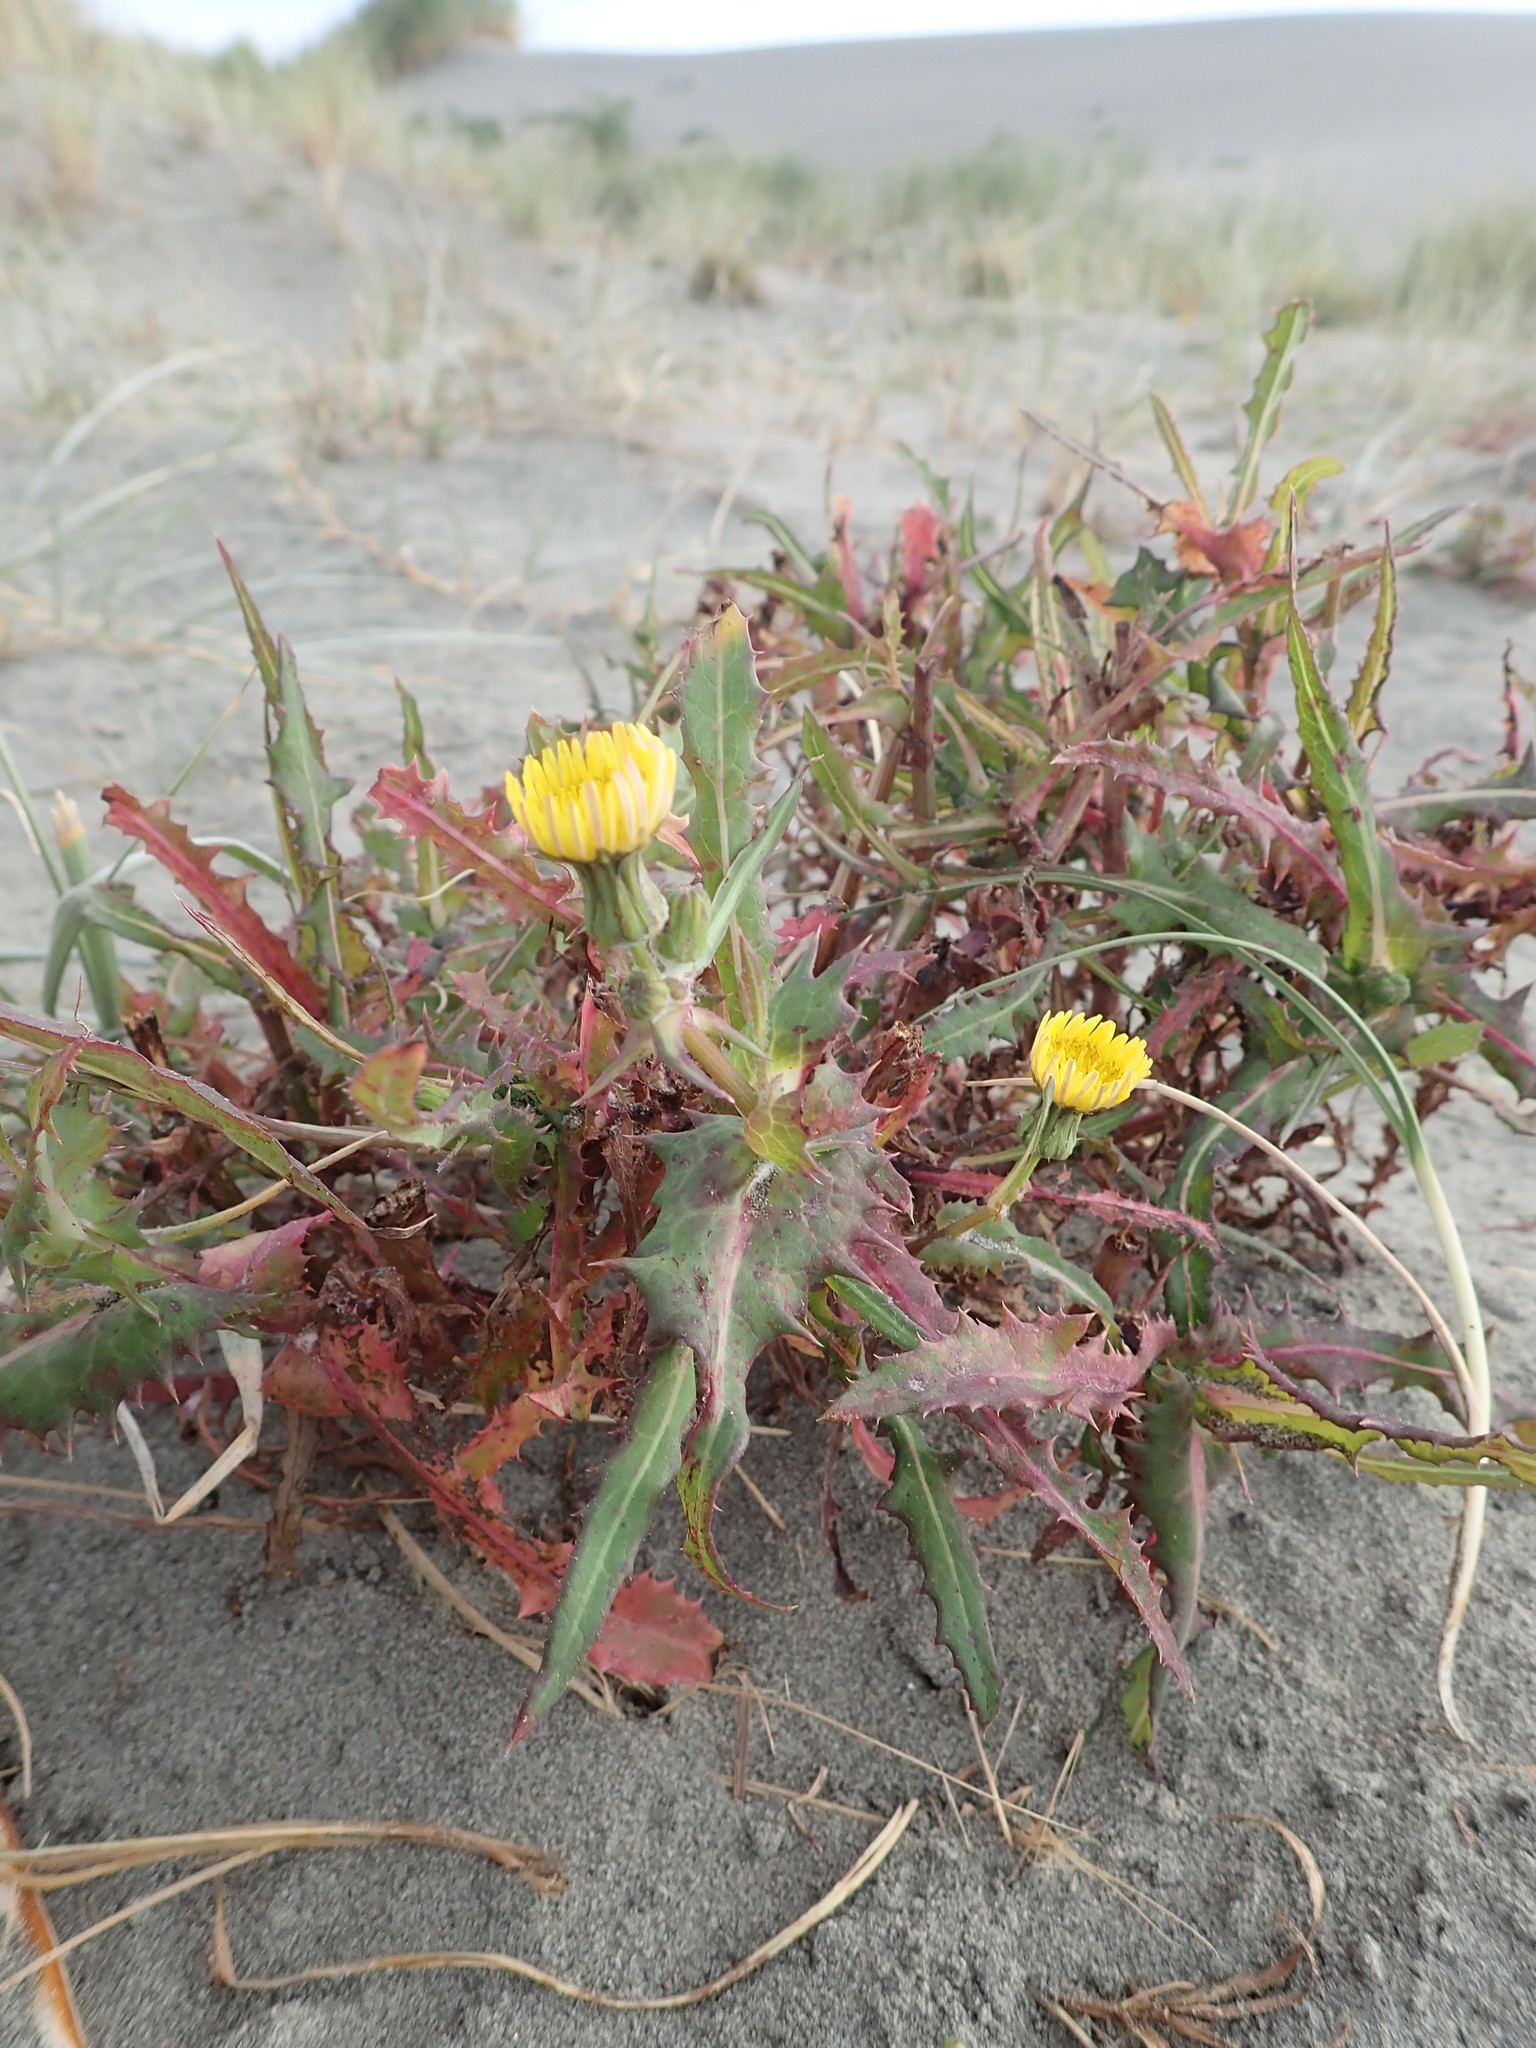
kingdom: Plantae
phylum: Tracheophyta
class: Magnoliopsida
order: Asterales
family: Asteraceae
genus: Sonchus
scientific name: Sonchus oleraceus
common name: Common sowthistle
